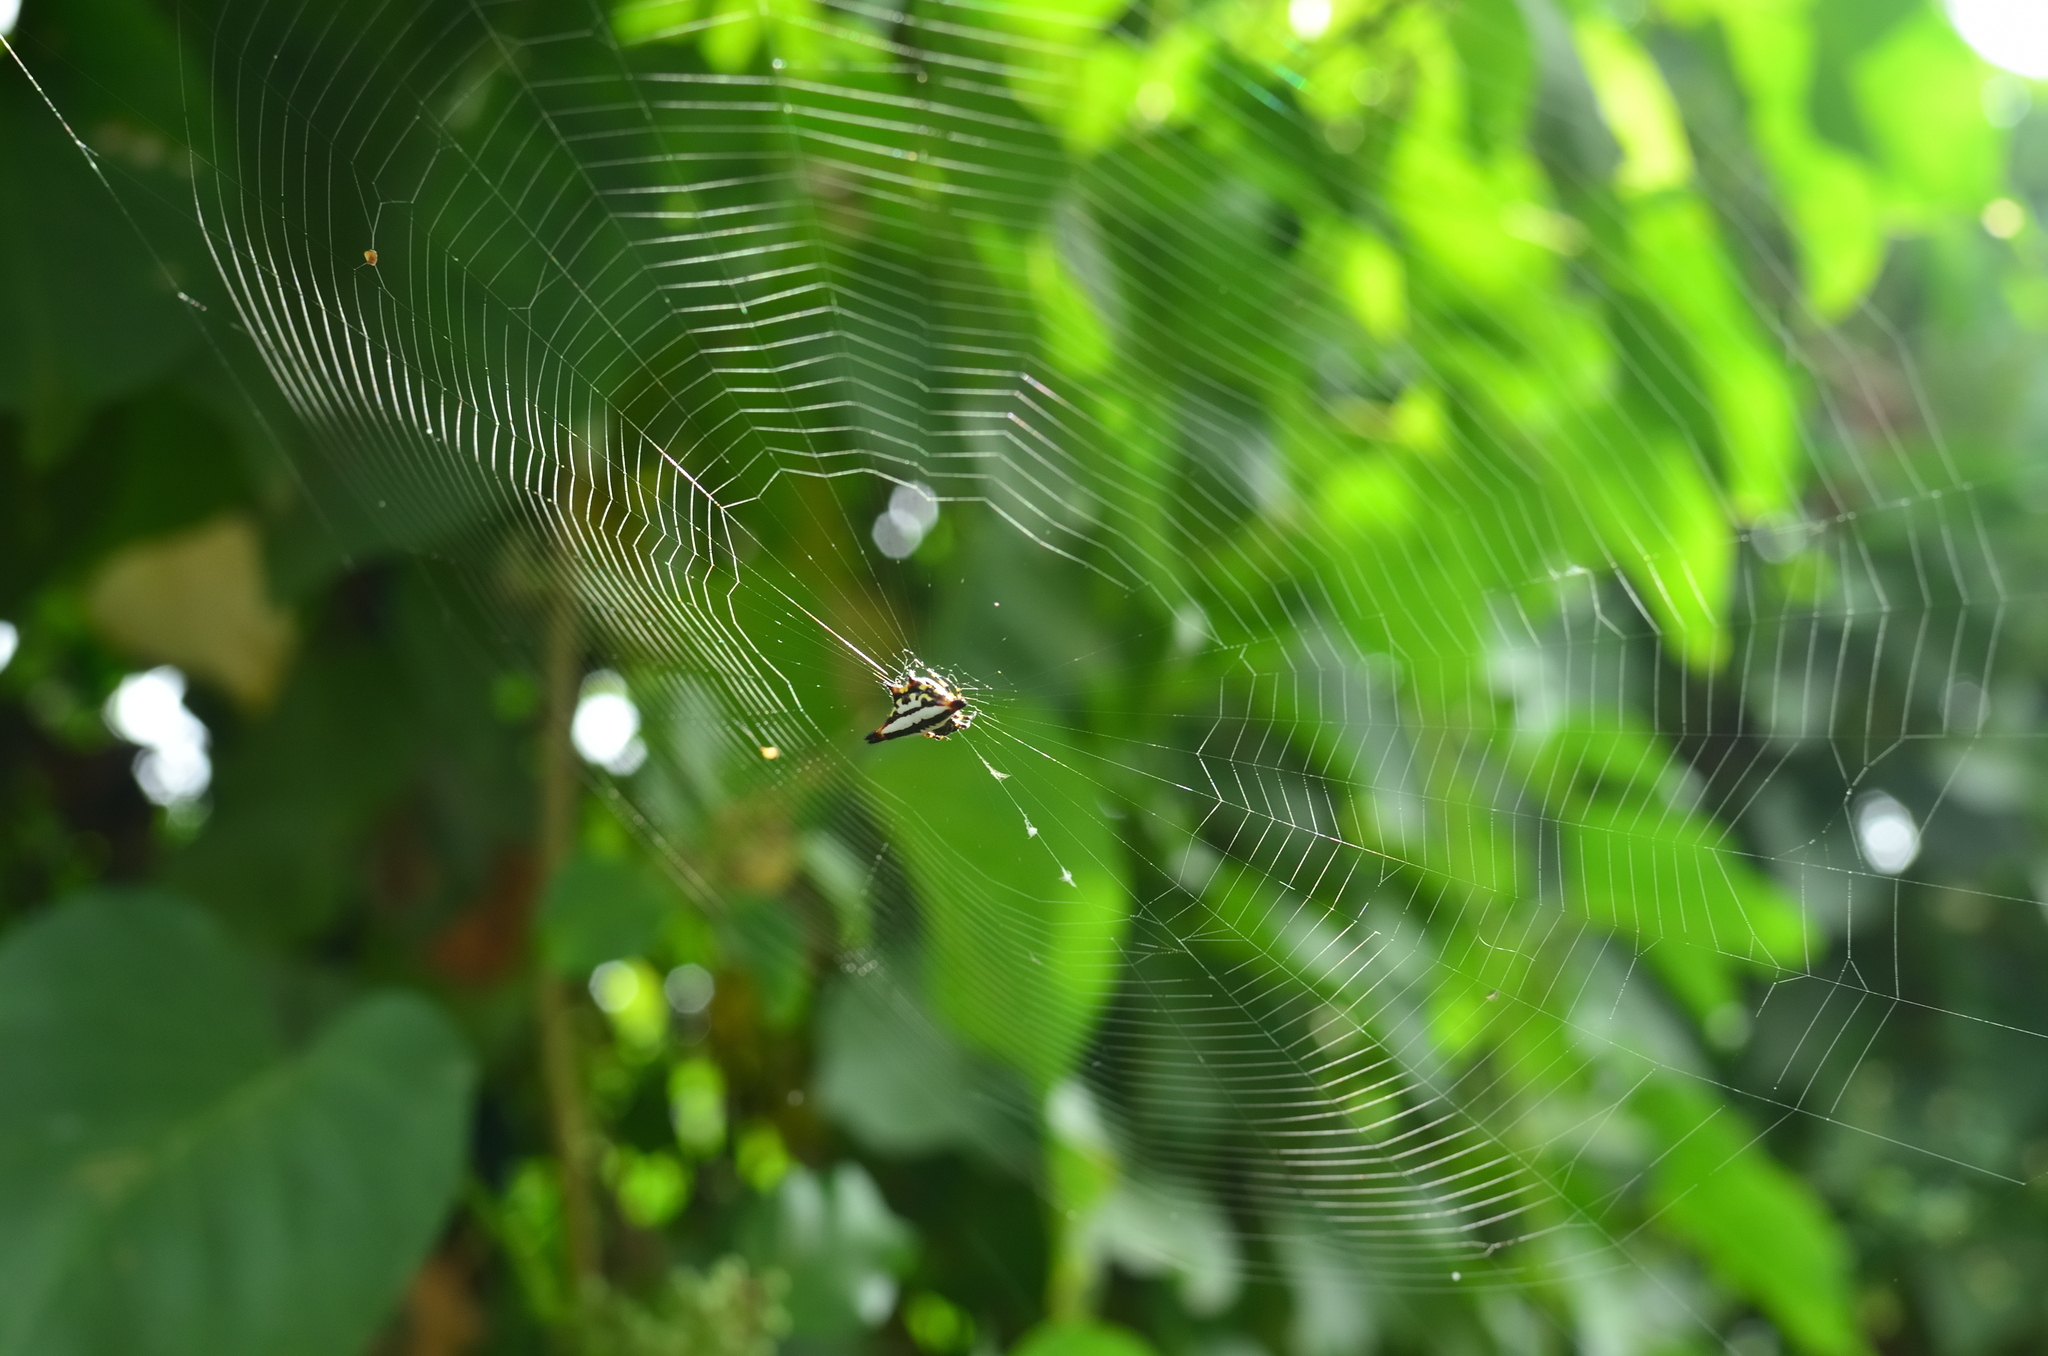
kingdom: Animalia
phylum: Arthropoda
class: Arachnida
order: Araneae
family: Araneidae
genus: Gasteracantha
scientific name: Gasteracantha geminata
